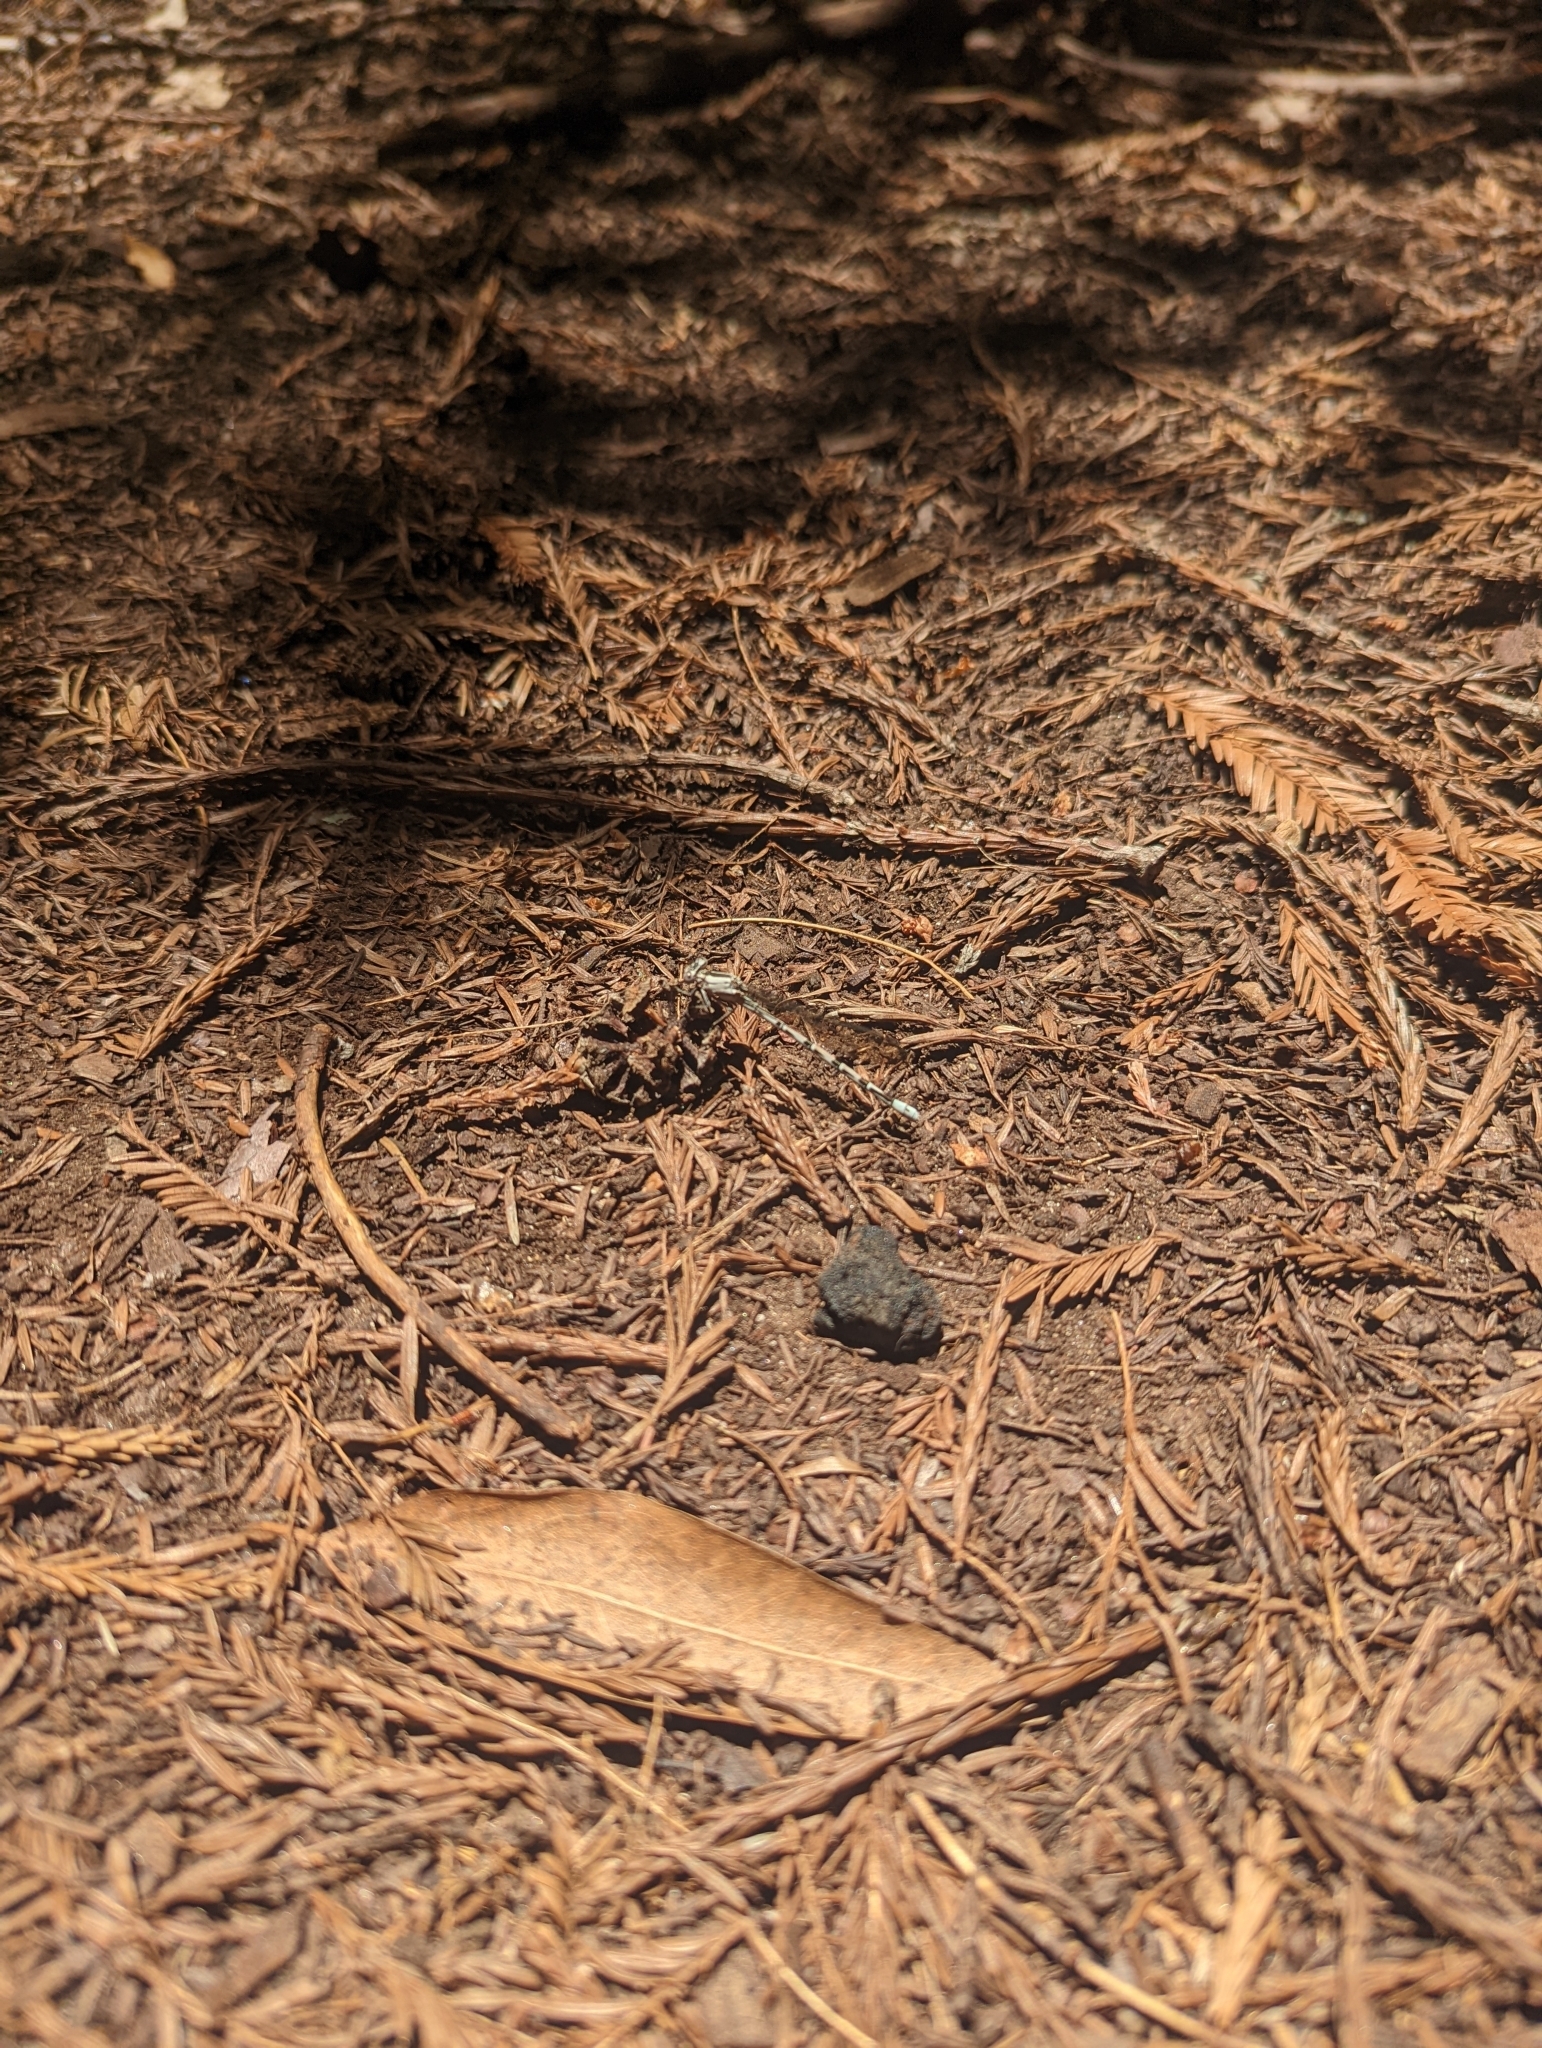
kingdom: Animalia
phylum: Arthropoda
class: Insecta
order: Odonata
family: Coenagrionidae
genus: Argia
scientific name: Argia vivida
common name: Vivid dancer
